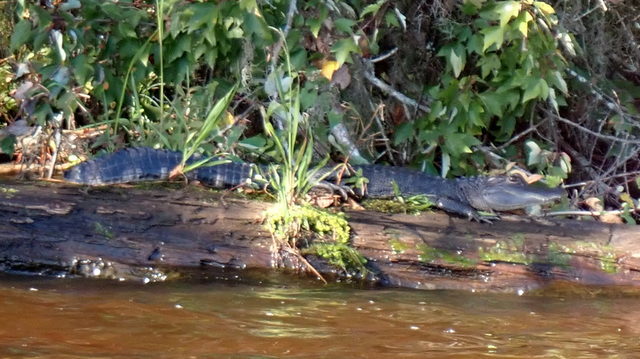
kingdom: Animalia
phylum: Chordata
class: Crocodylia
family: Alligatoridae
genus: Alligator
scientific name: Alligator mississippiensis
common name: American alligator
